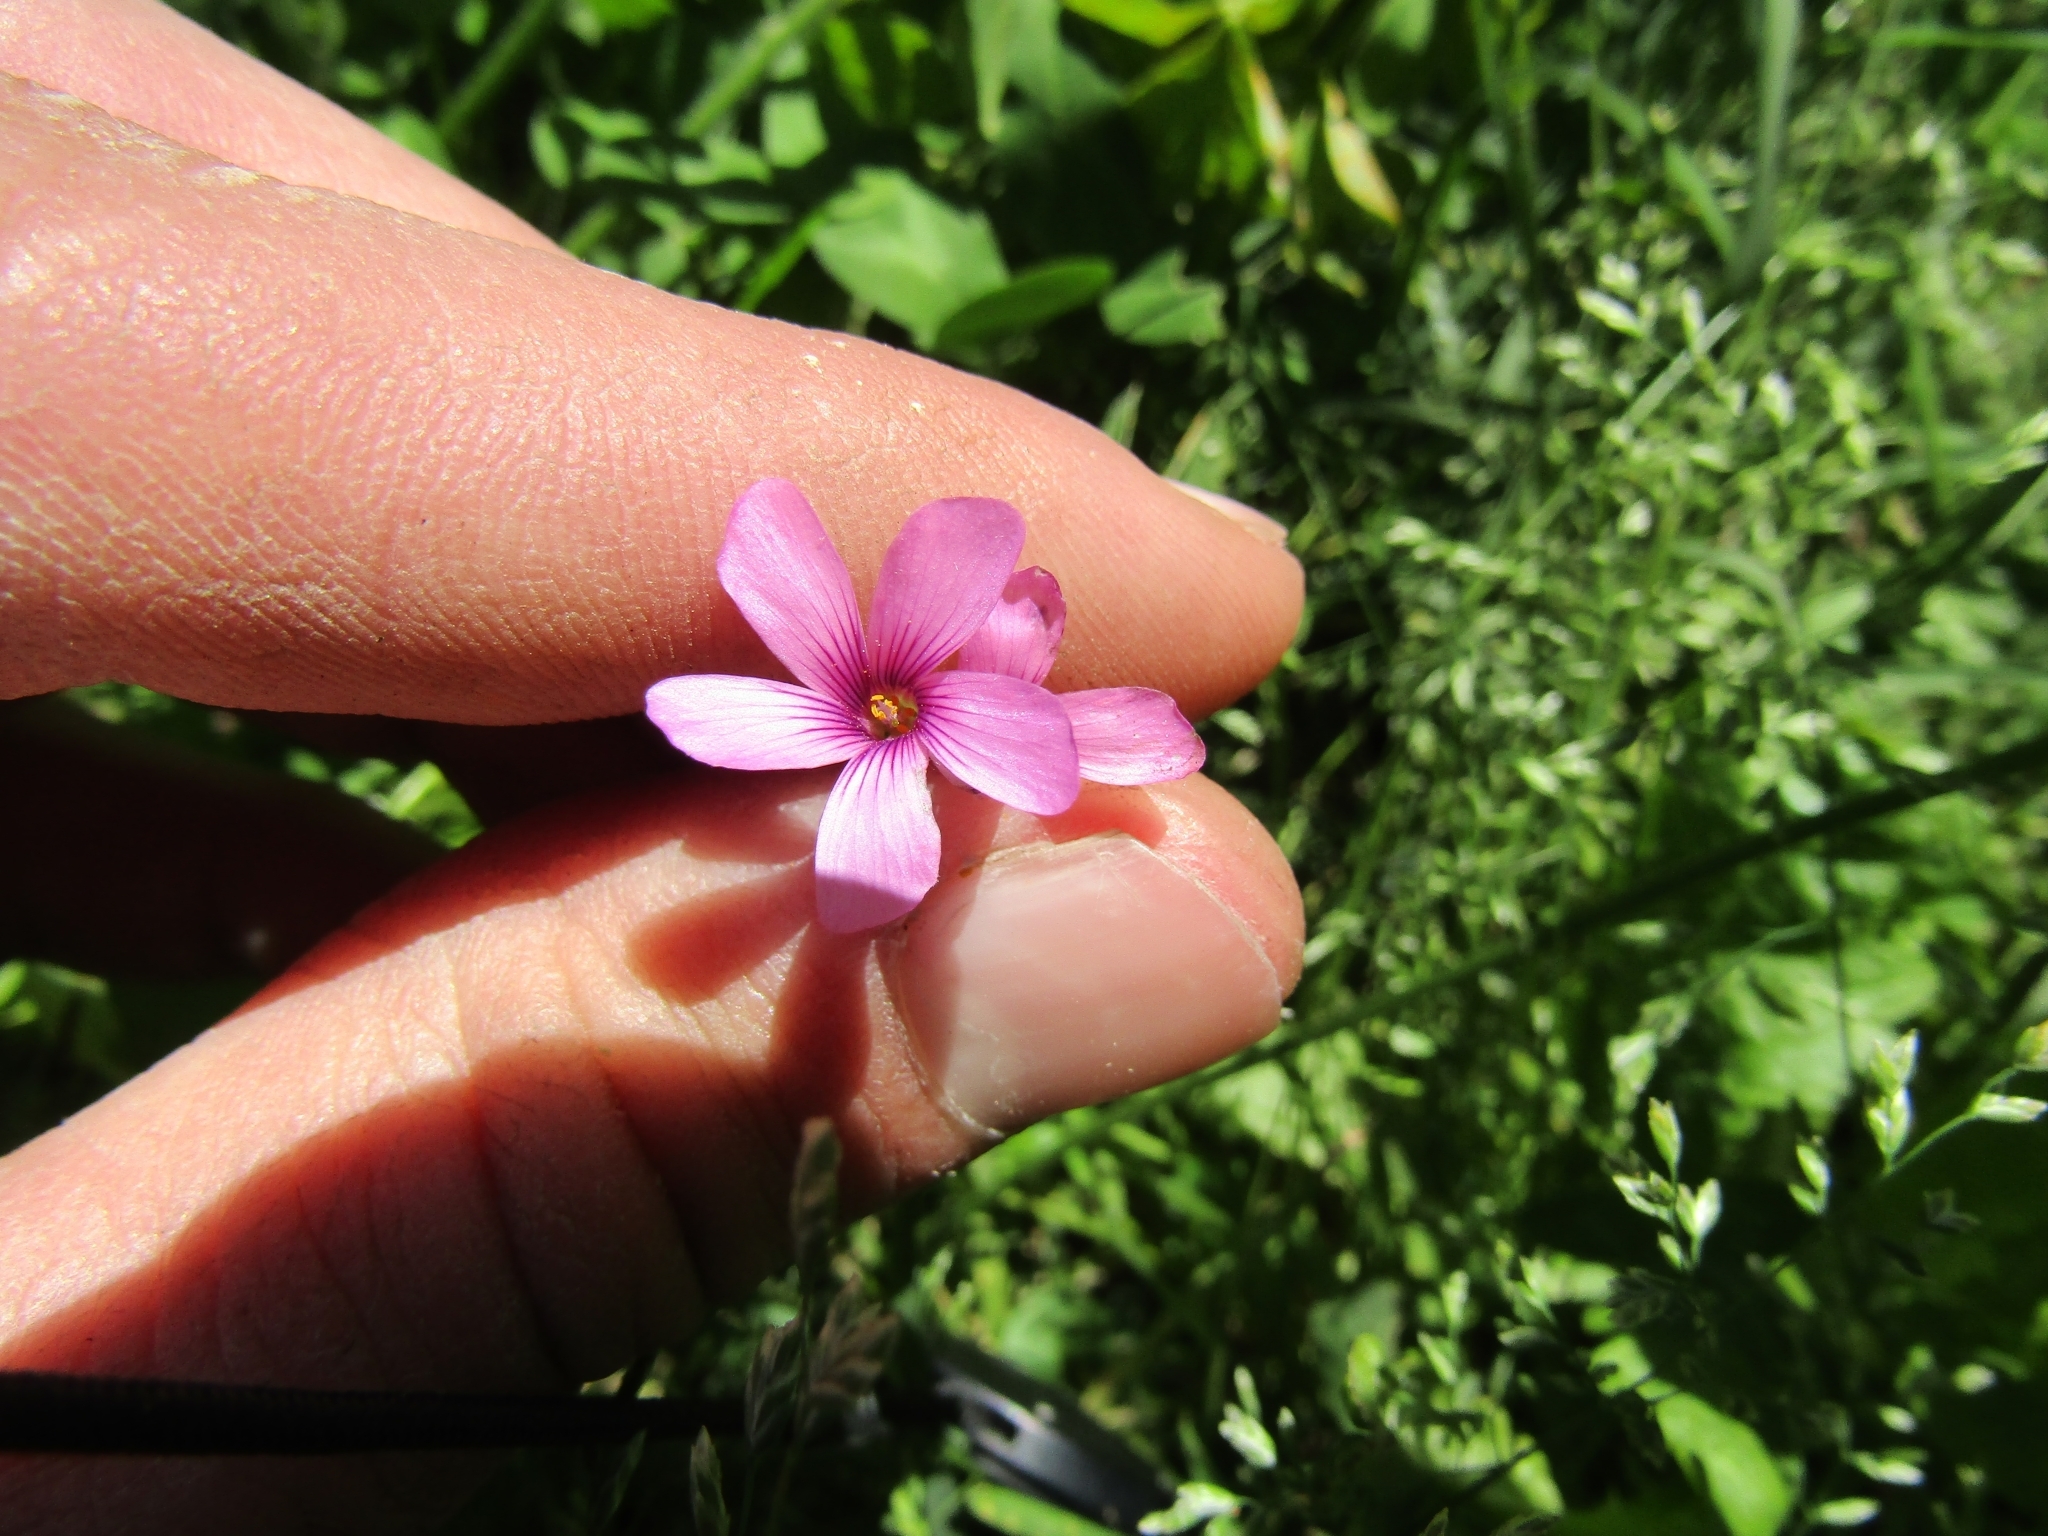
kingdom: Plantae
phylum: Tracheophyta
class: Magnoliopsida
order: Oxalidales
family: Oxalidaceae
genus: Oxalis
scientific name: Oxalis articulata
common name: Pink-sorrel
